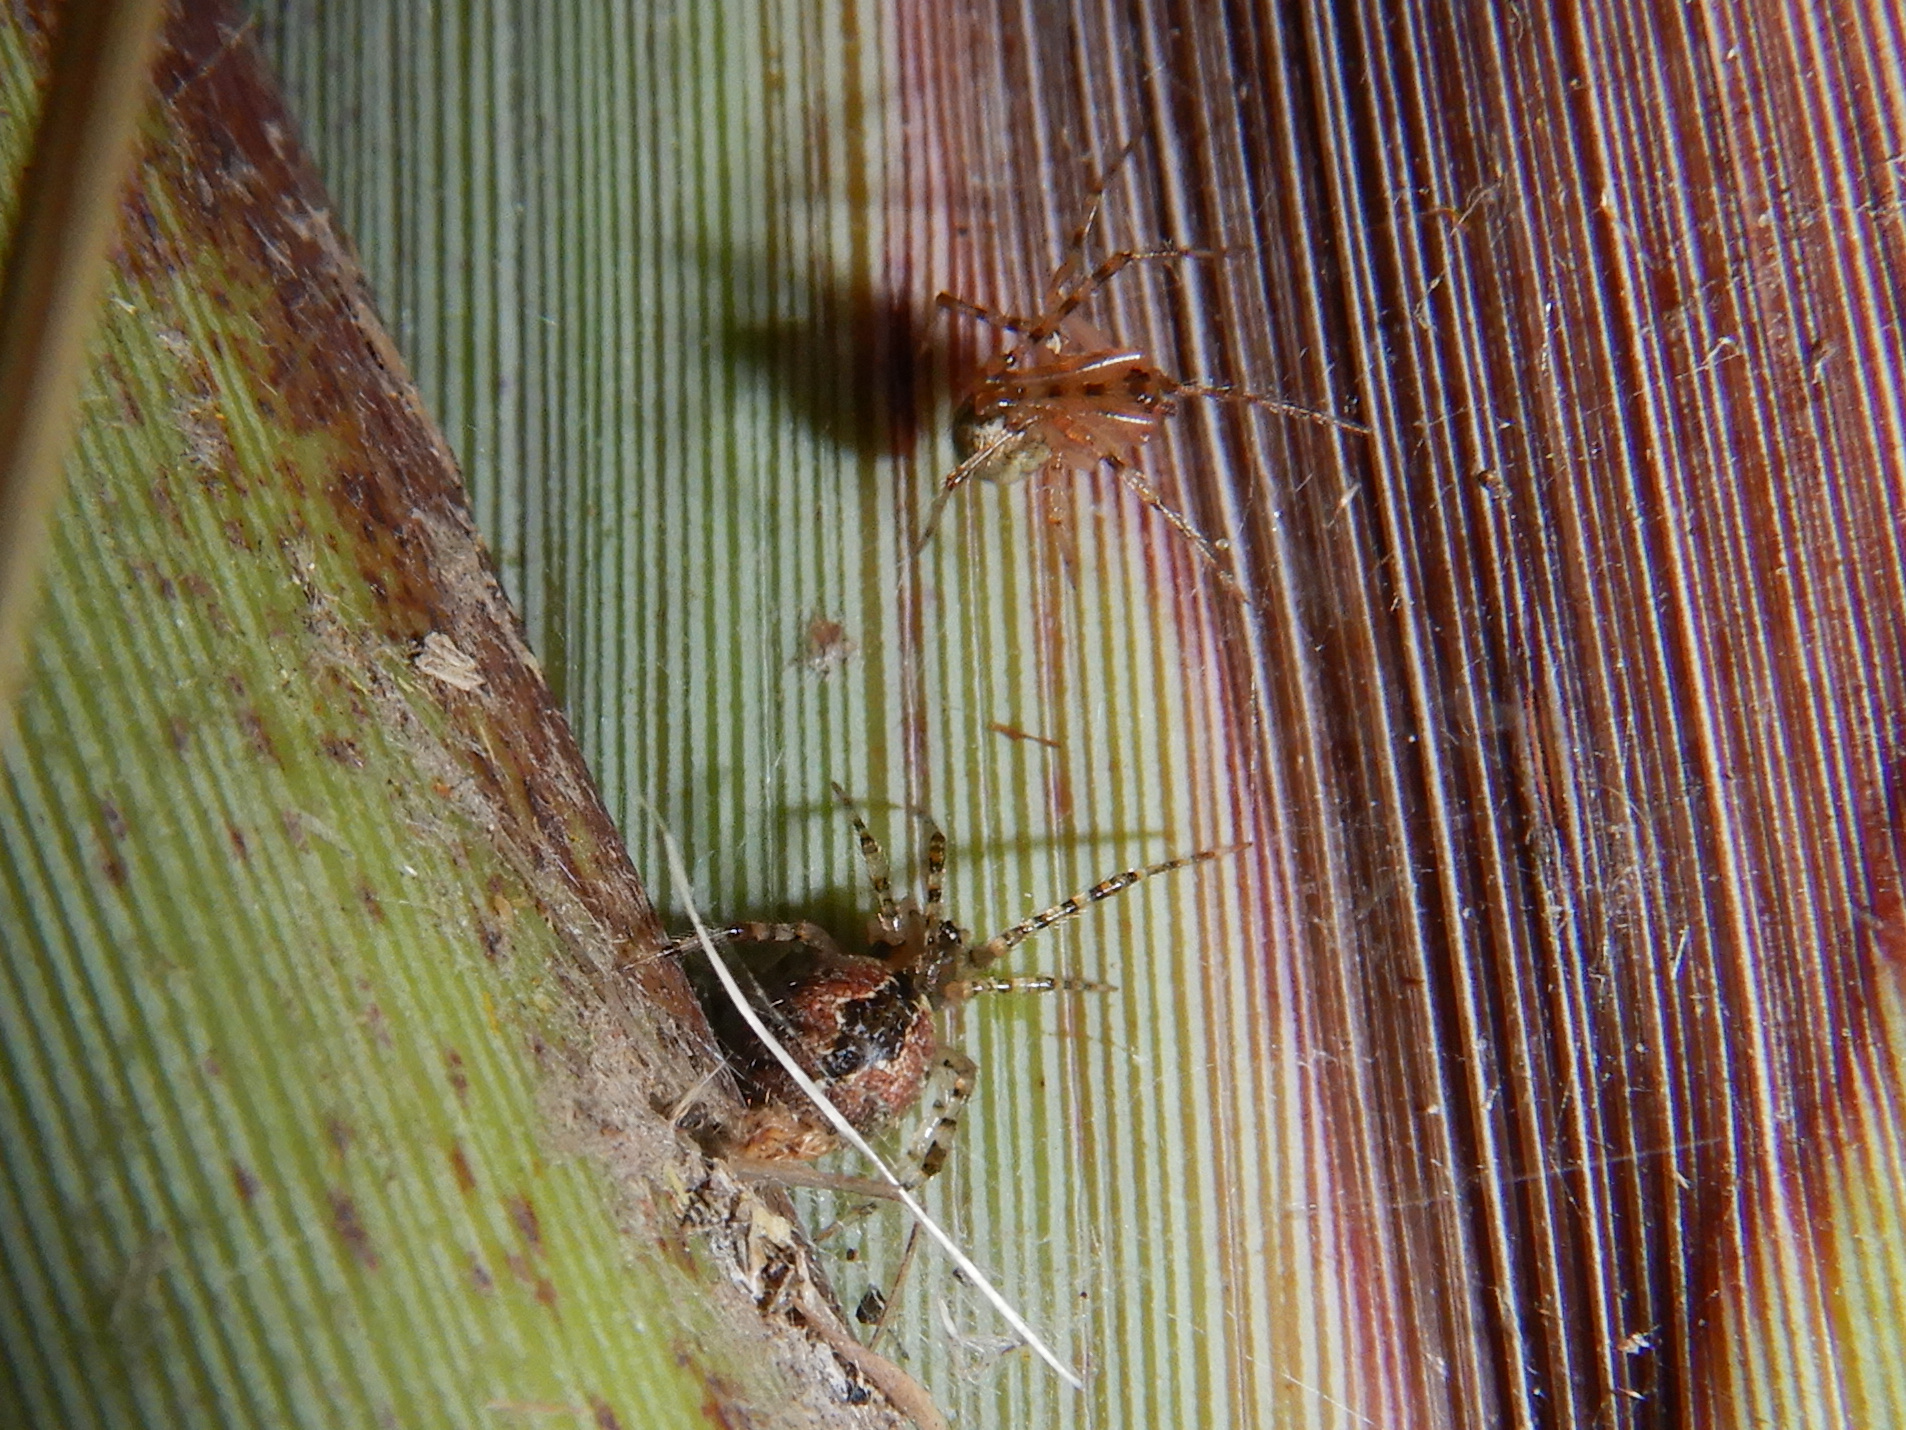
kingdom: Animalia
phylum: Arthropoda
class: Arachnida
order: Araneae
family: Theridiidae
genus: Cryptachaea
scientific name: Cryptachaea veruculata
